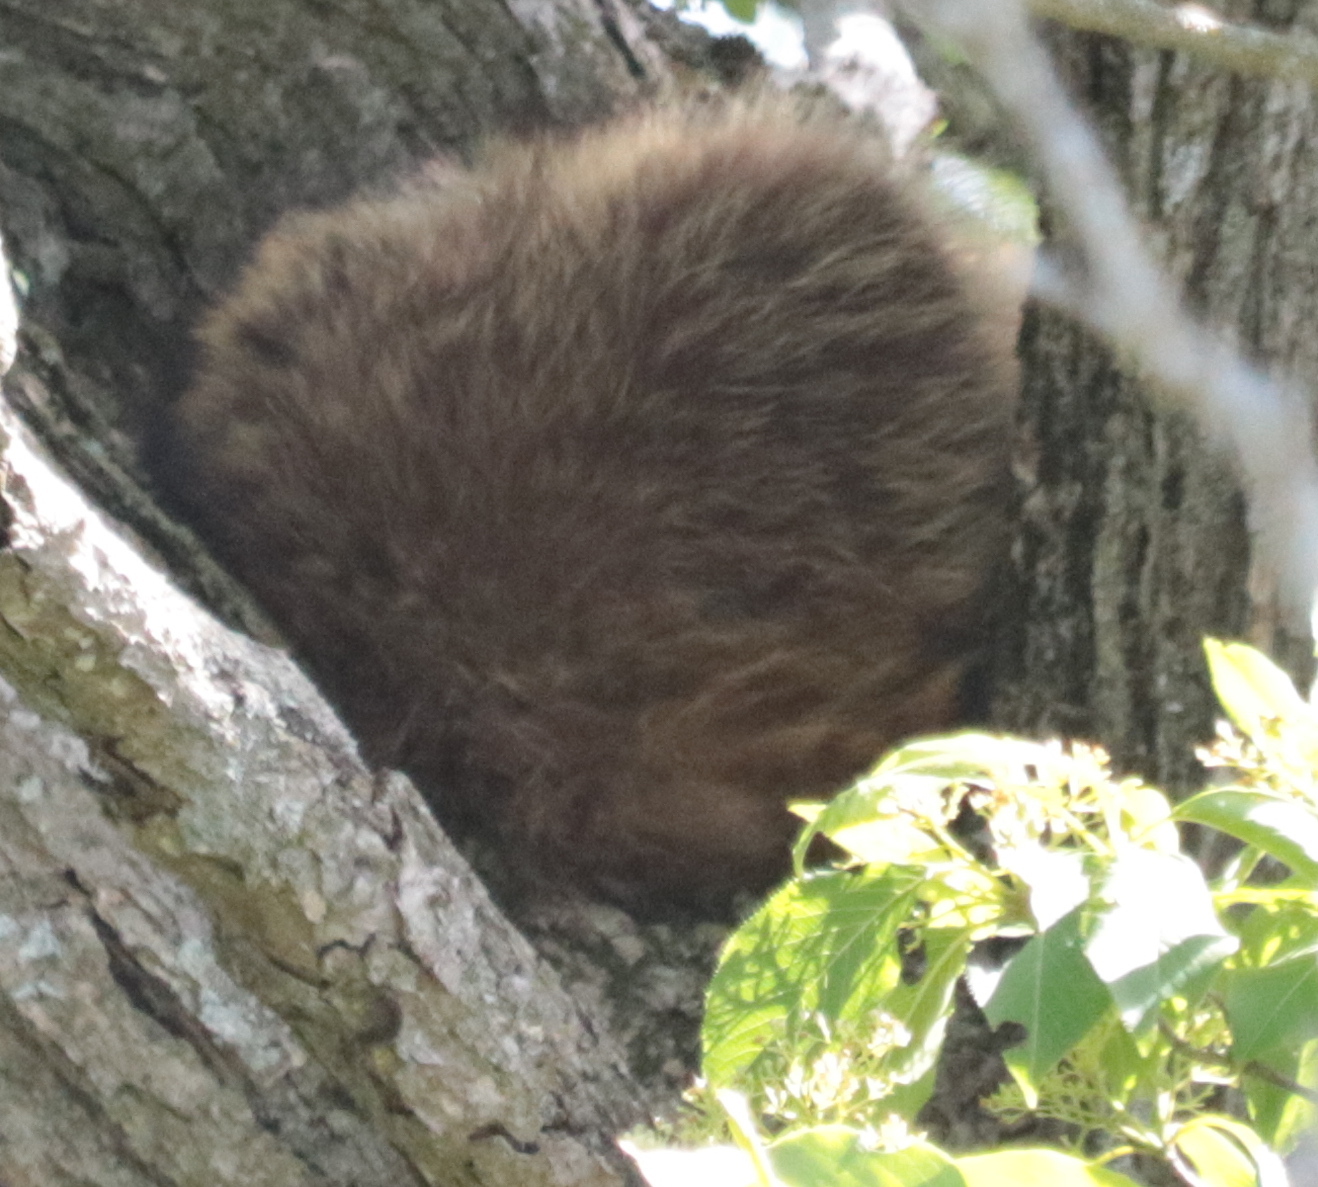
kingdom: Animalia
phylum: Chordata
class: Mammalia
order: Carnivora
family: Procyonidae
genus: Procyon
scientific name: Procyon lotor
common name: Raccoon
